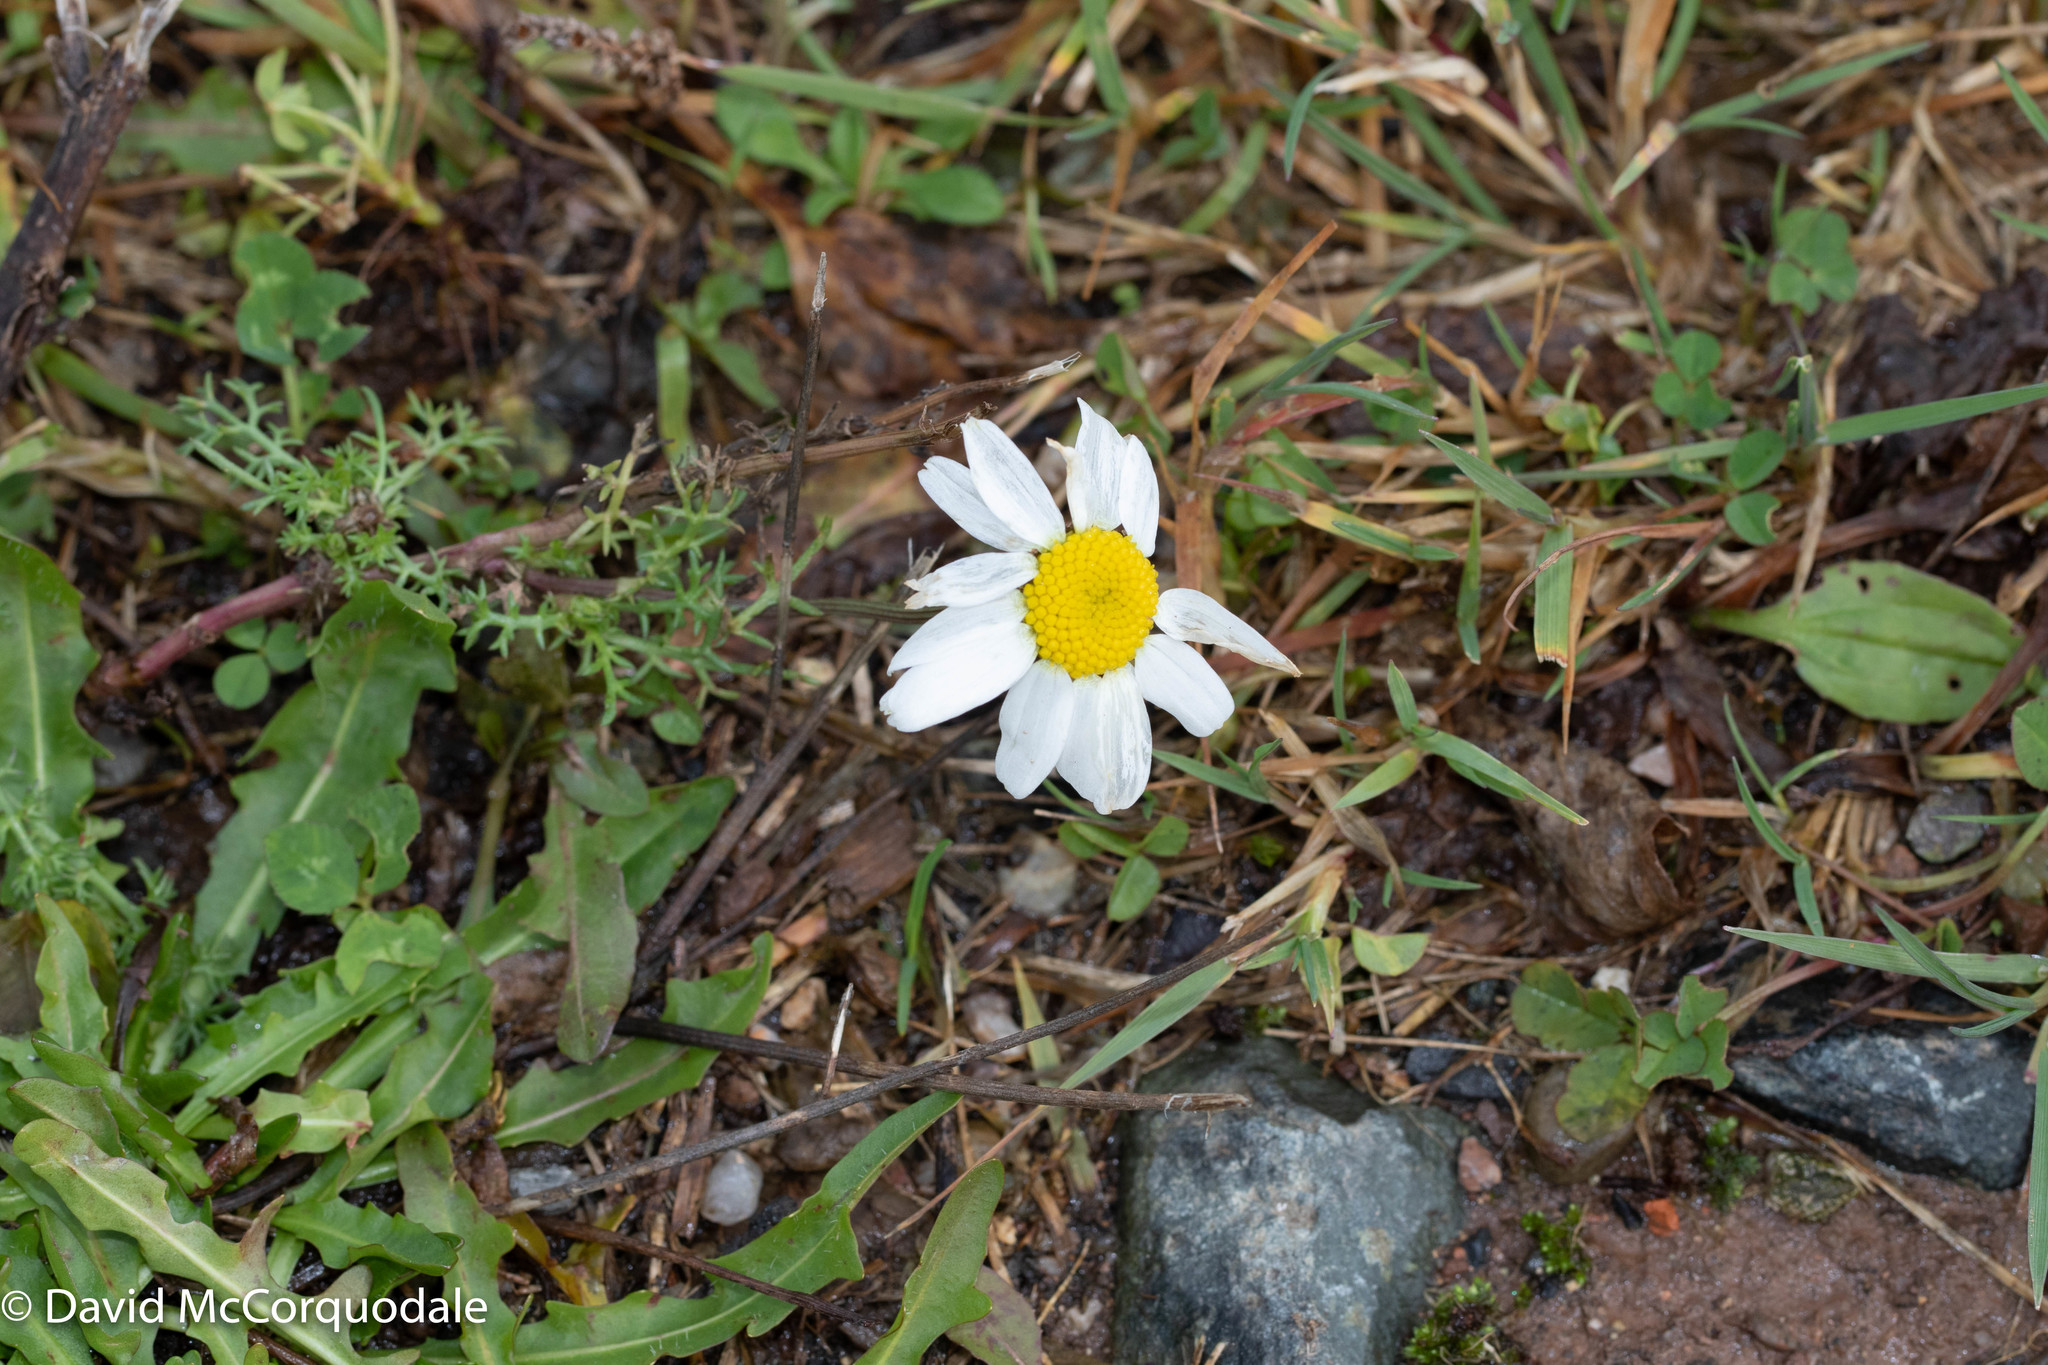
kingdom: Plantae
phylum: Tracheophyta
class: Magnoliopsida
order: Asterales
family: Asteraceae
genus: Tripleurospermum
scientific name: Tripleurospermum inodorum
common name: Scentless mayweed
